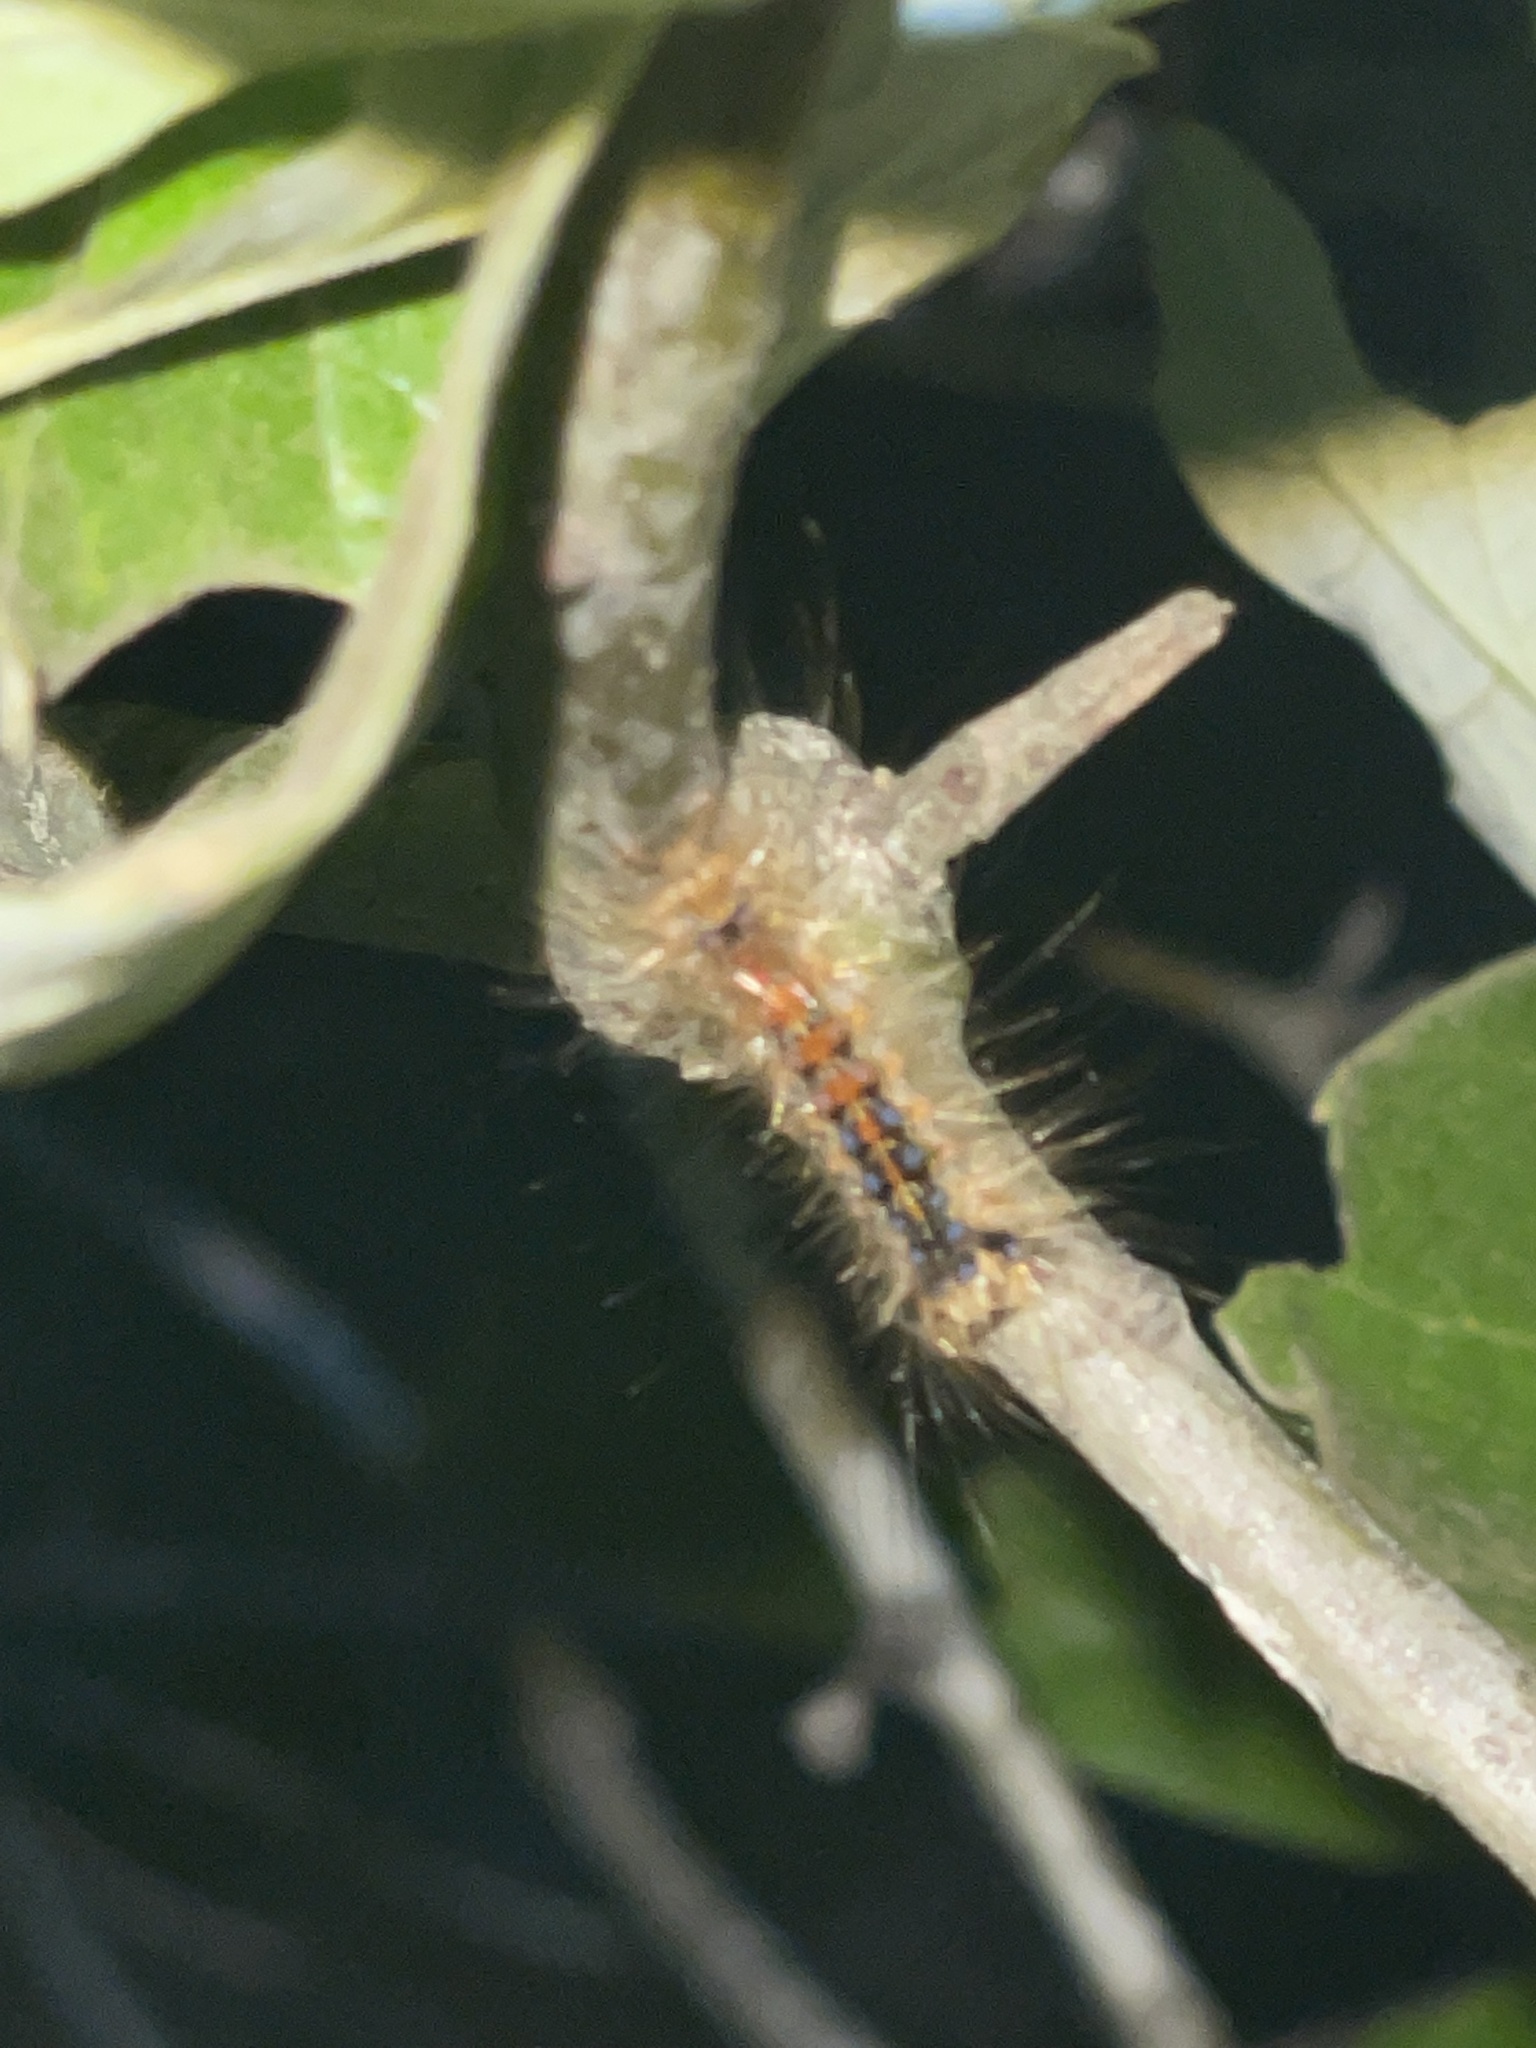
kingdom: Animalia
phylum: Arthropoda
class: Insecta
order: Lepidoptera
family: Erebidae
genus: Lymantria
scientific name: Lymantria dispar
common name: Gypsy moth
